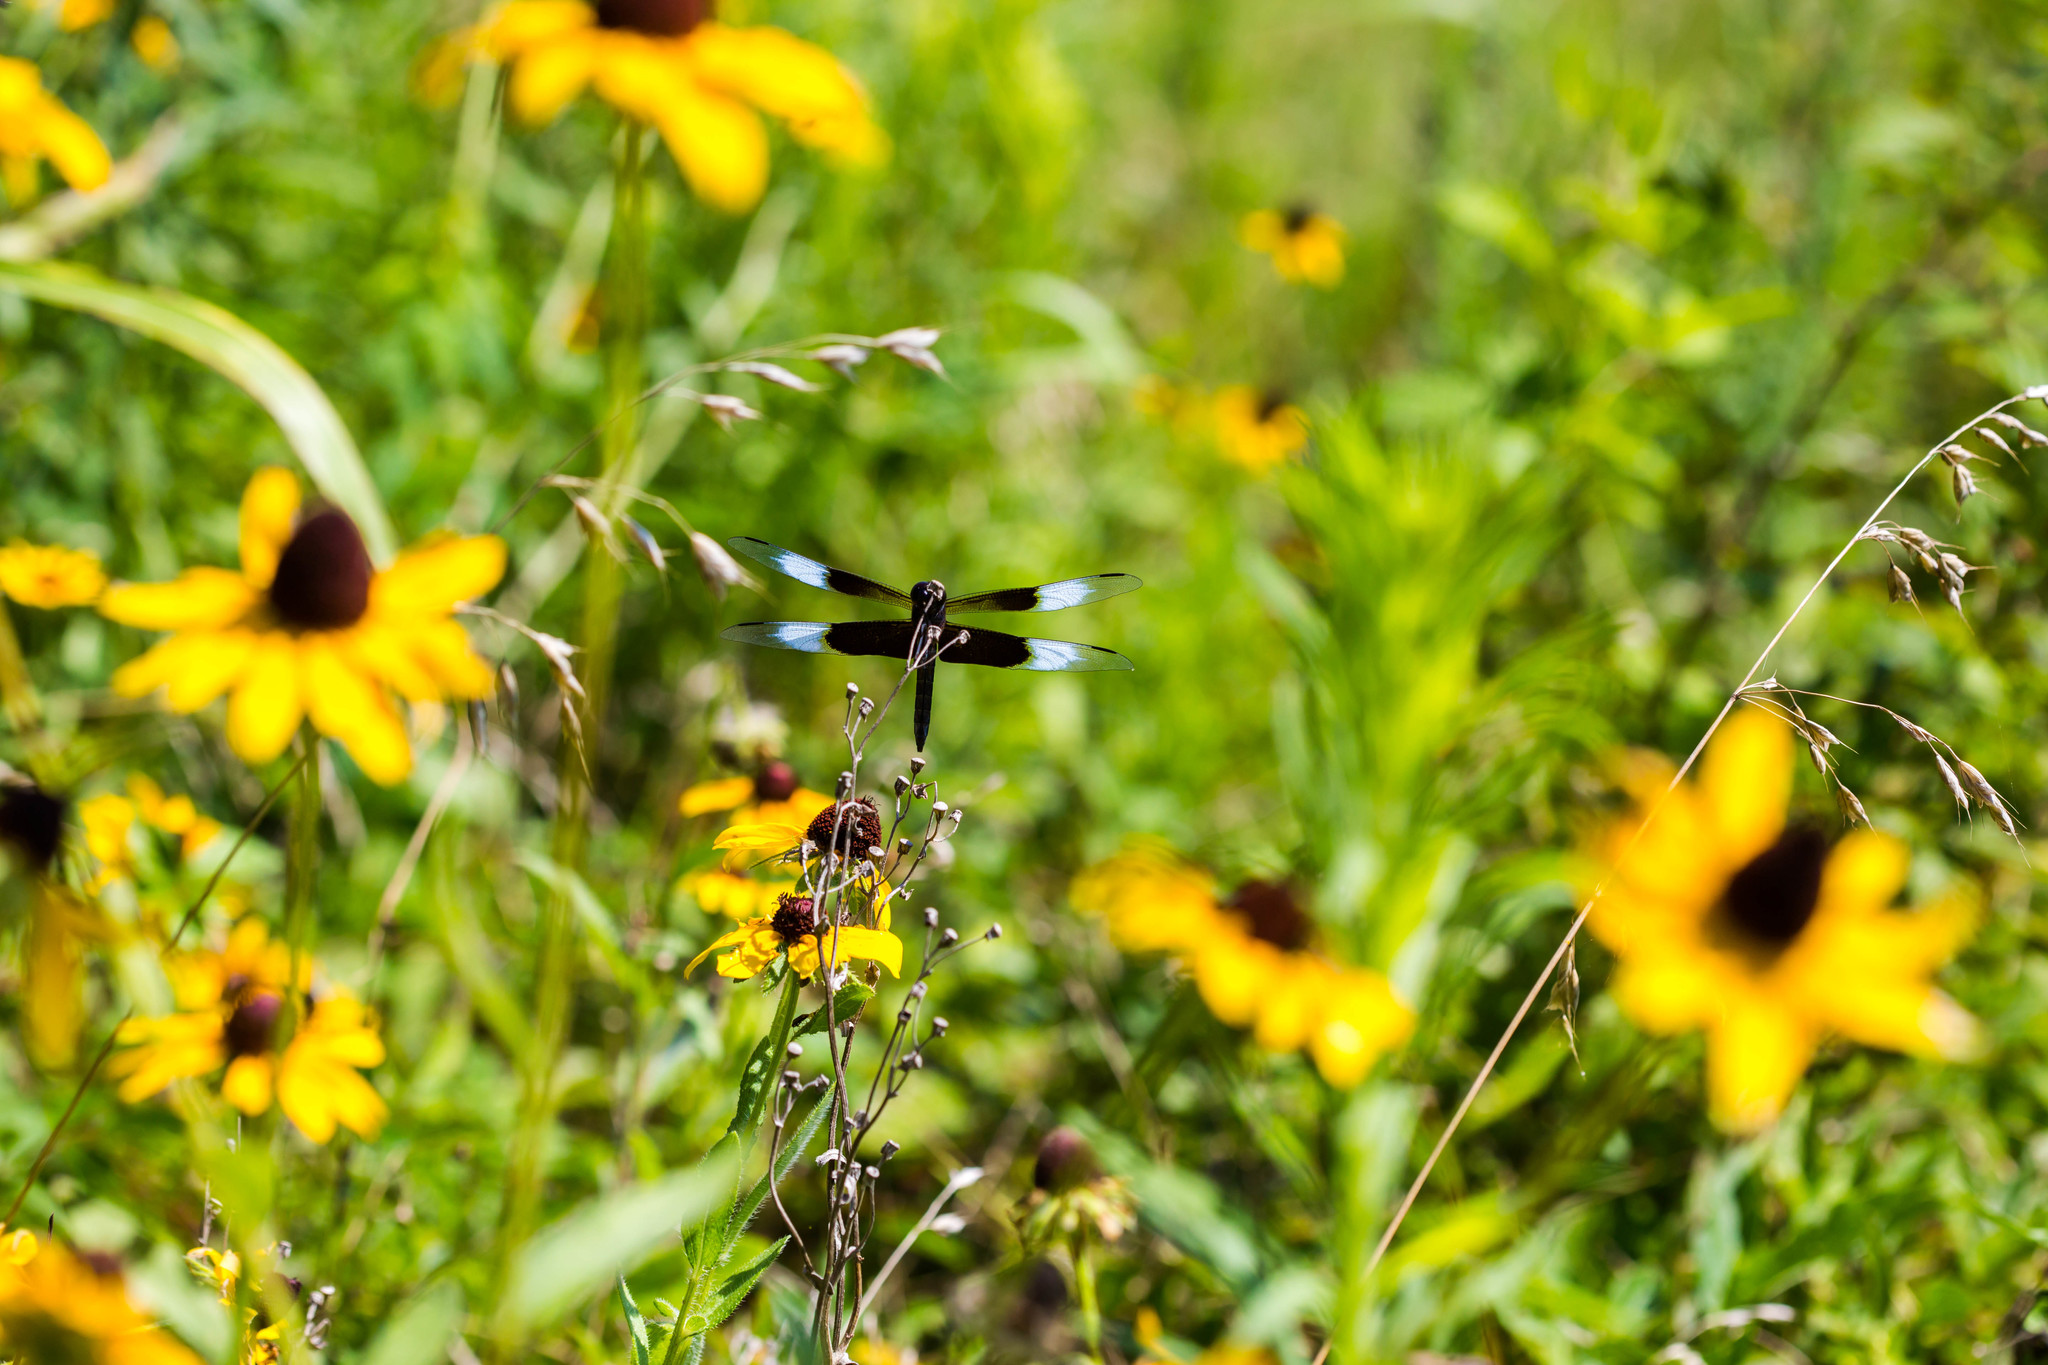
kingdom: Animalia
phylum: Arthropoda
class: Insecta
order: Odonata
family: Libellulidae
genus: Libellula
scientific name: Libellula luctuosa
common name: Widow skimmer
